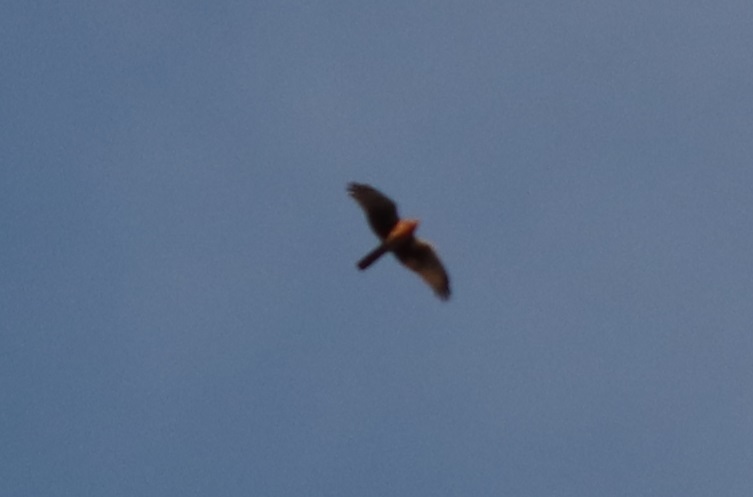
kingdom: Animalia
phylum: Chordata
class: Aves
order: Accipitriformes
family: Accipitridae
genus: Circus
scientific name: Circus cyaneus
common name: Hen harrier
